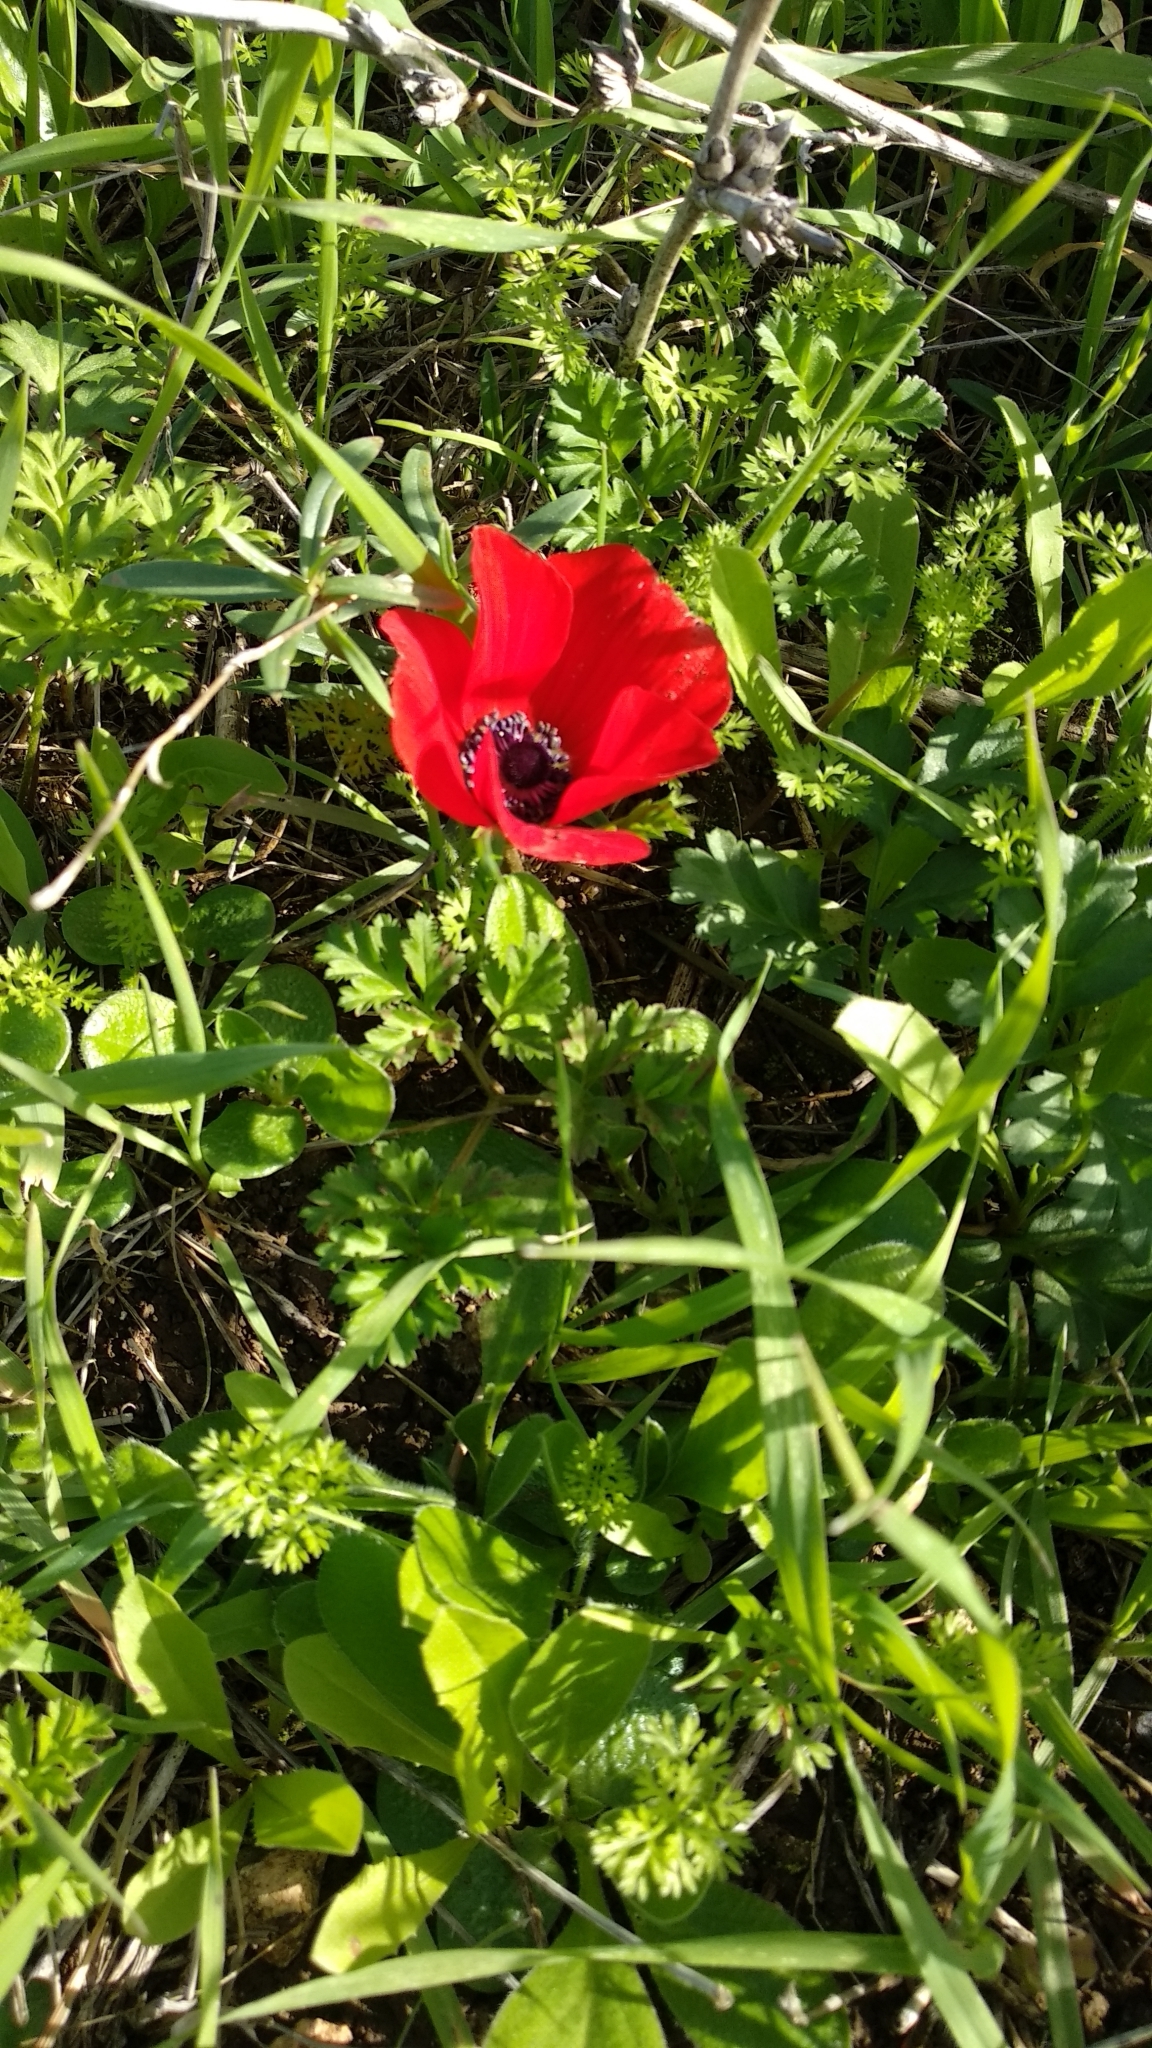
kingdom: Plantae
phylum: Tracheophyta
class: Magnoliopsida
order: Ranunculales
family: Ranunculaceae
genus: Anemone
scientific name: Anemone coronaria
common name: Poppy anemone
